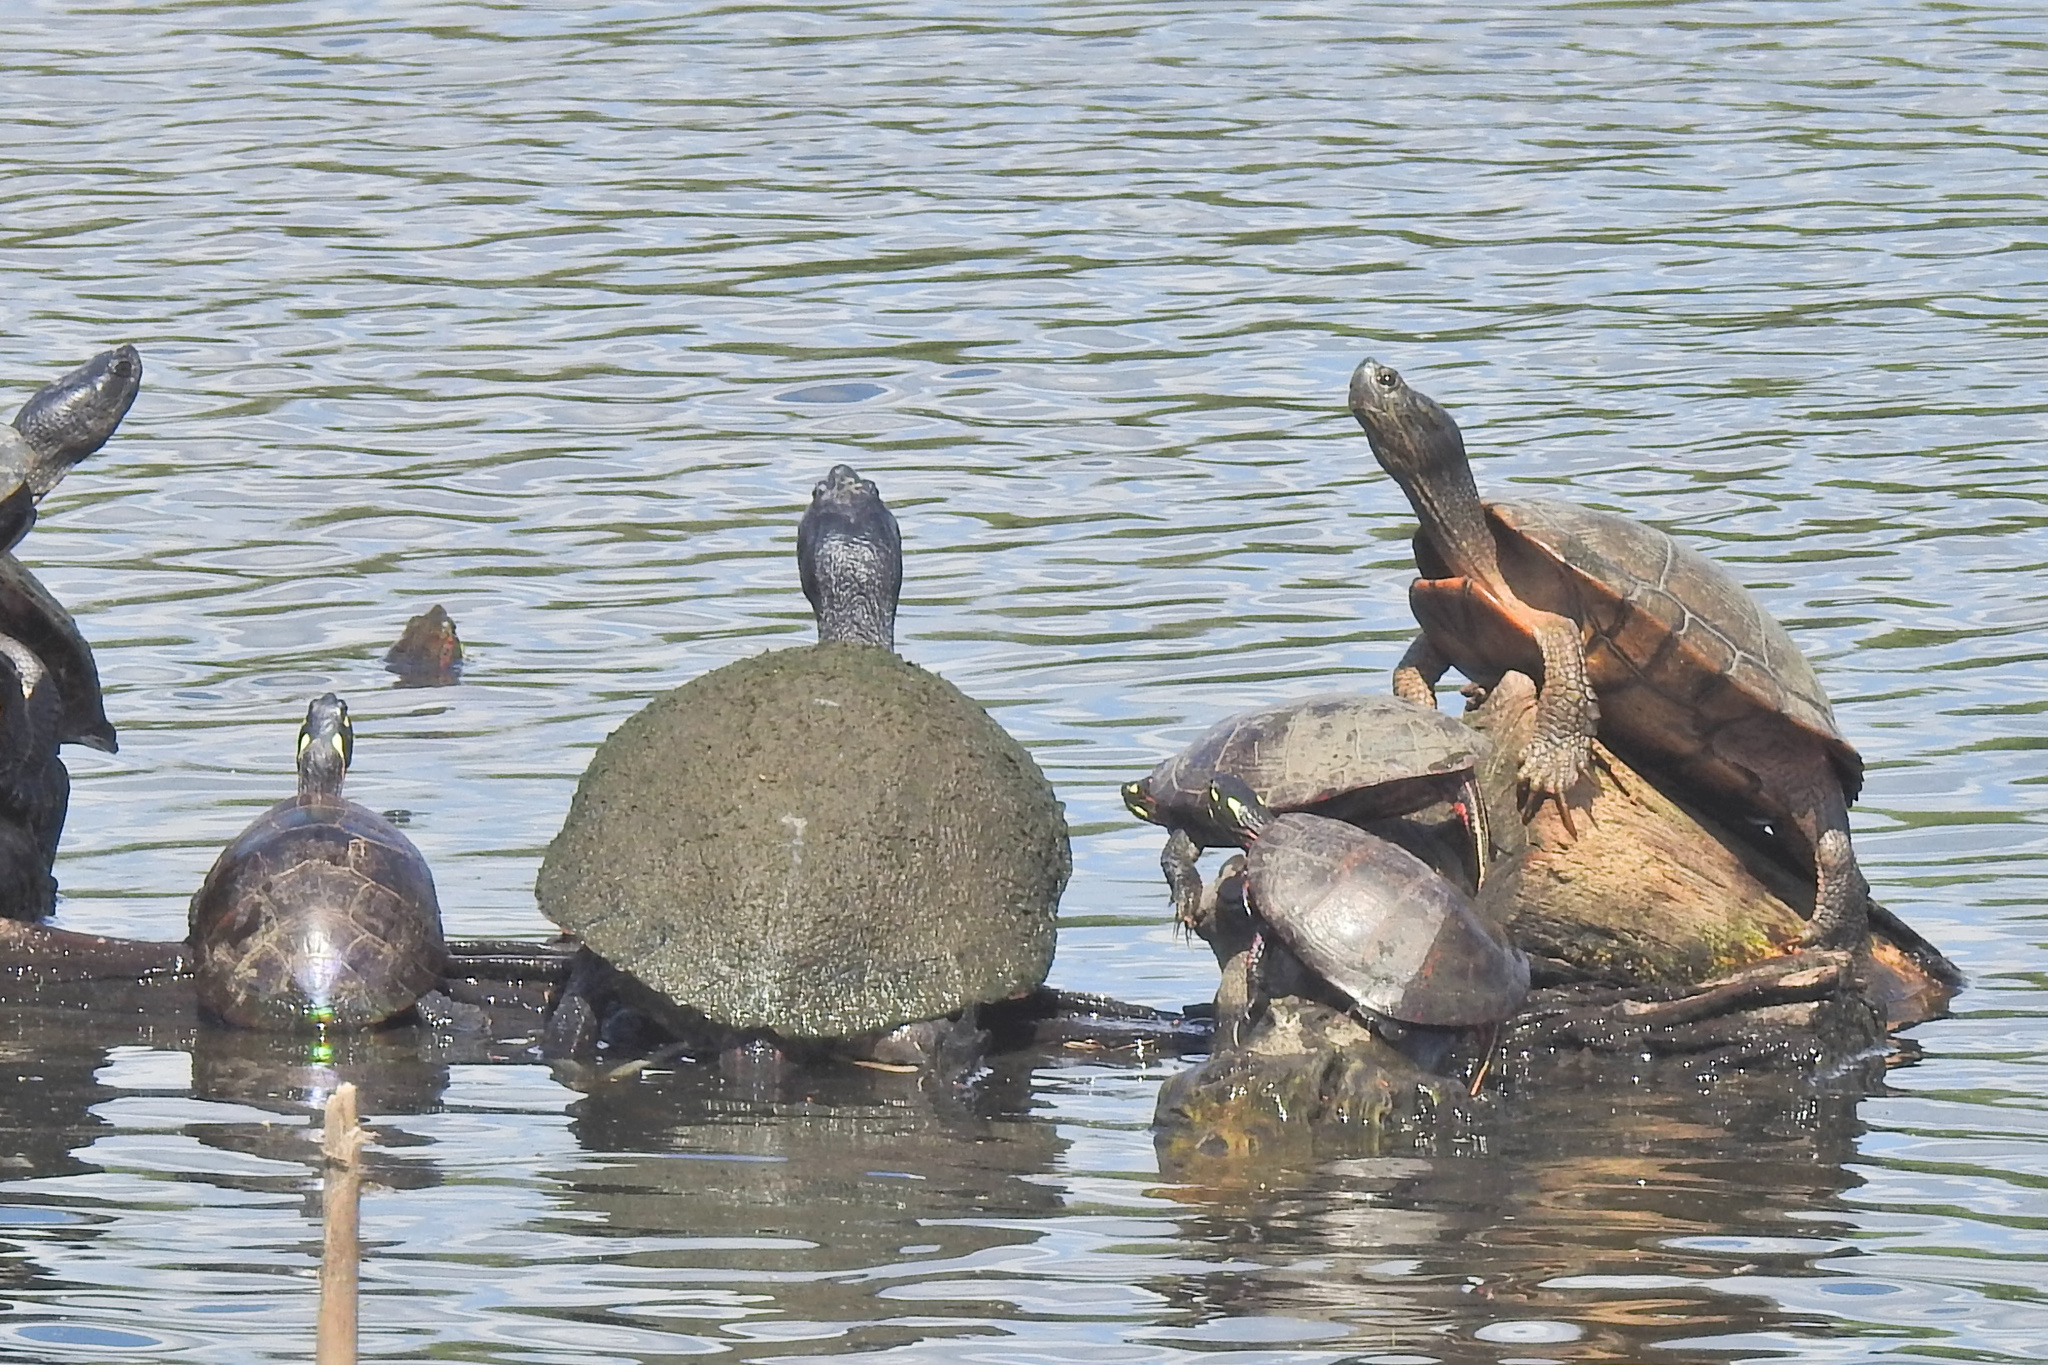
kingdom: Animalia
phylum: Chordata
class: Testudines
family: Emydidae
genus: Pseudemys
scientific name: Pseudemys rubriventris
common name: American red-bellied turtle
